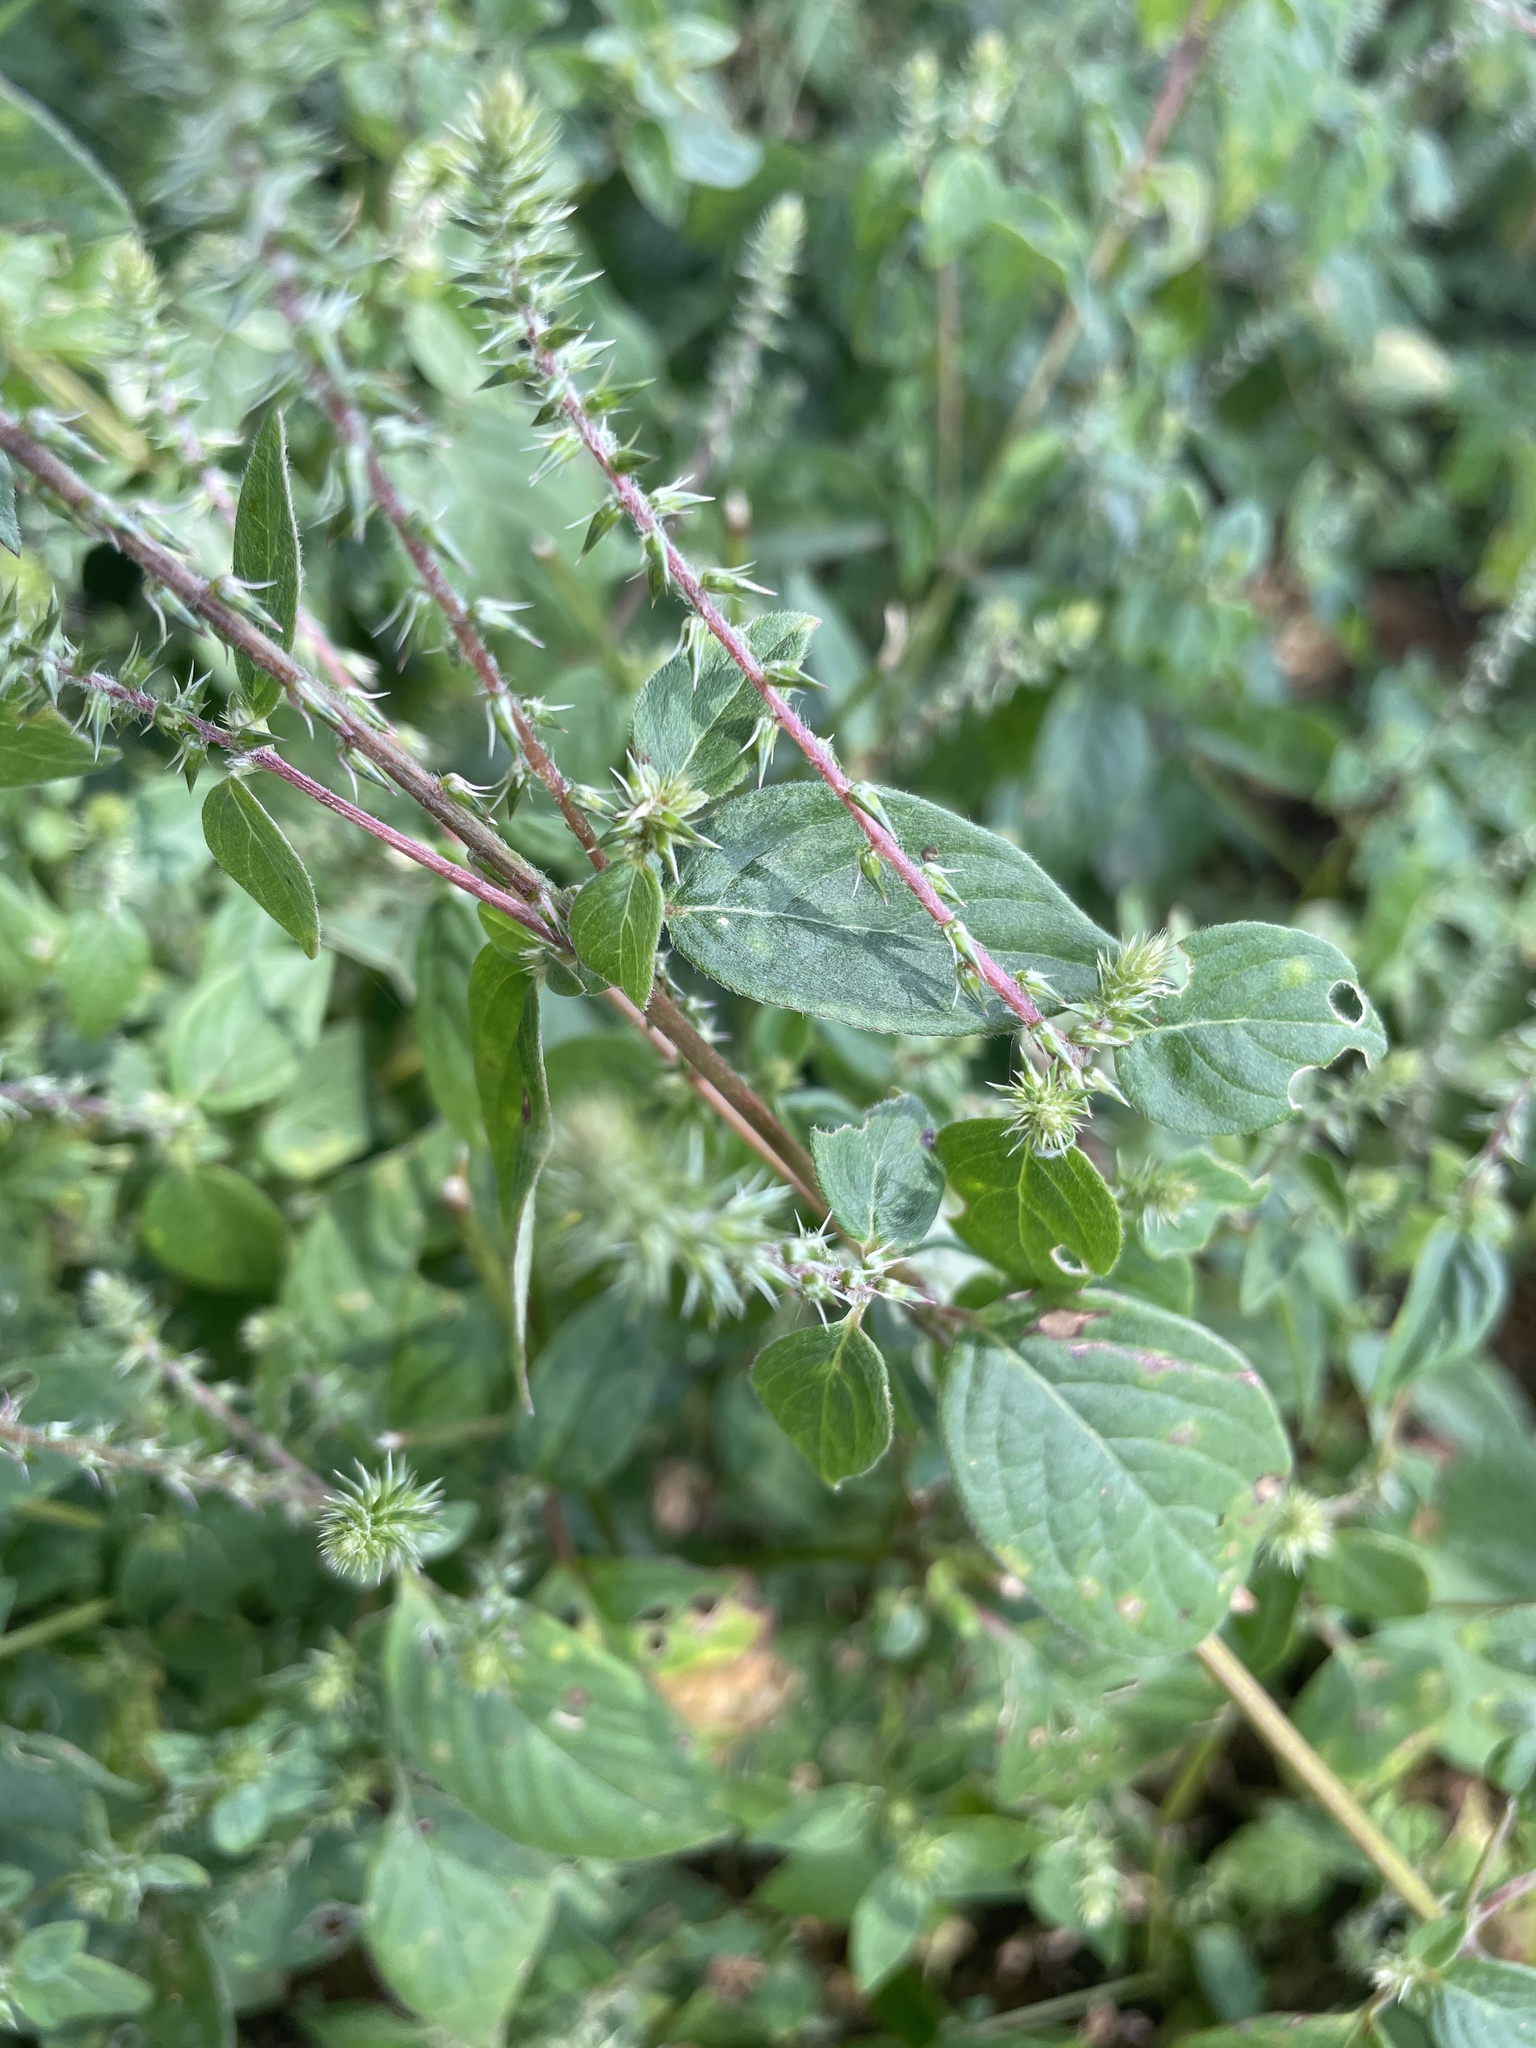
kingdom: Plantae
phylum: Tracheophyta
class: Magnoliopsida
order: Caryophyllales
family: Amaranthaceae
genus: Achyranthes
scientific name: Achyranthes aspera
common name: Devil's horsewhip
